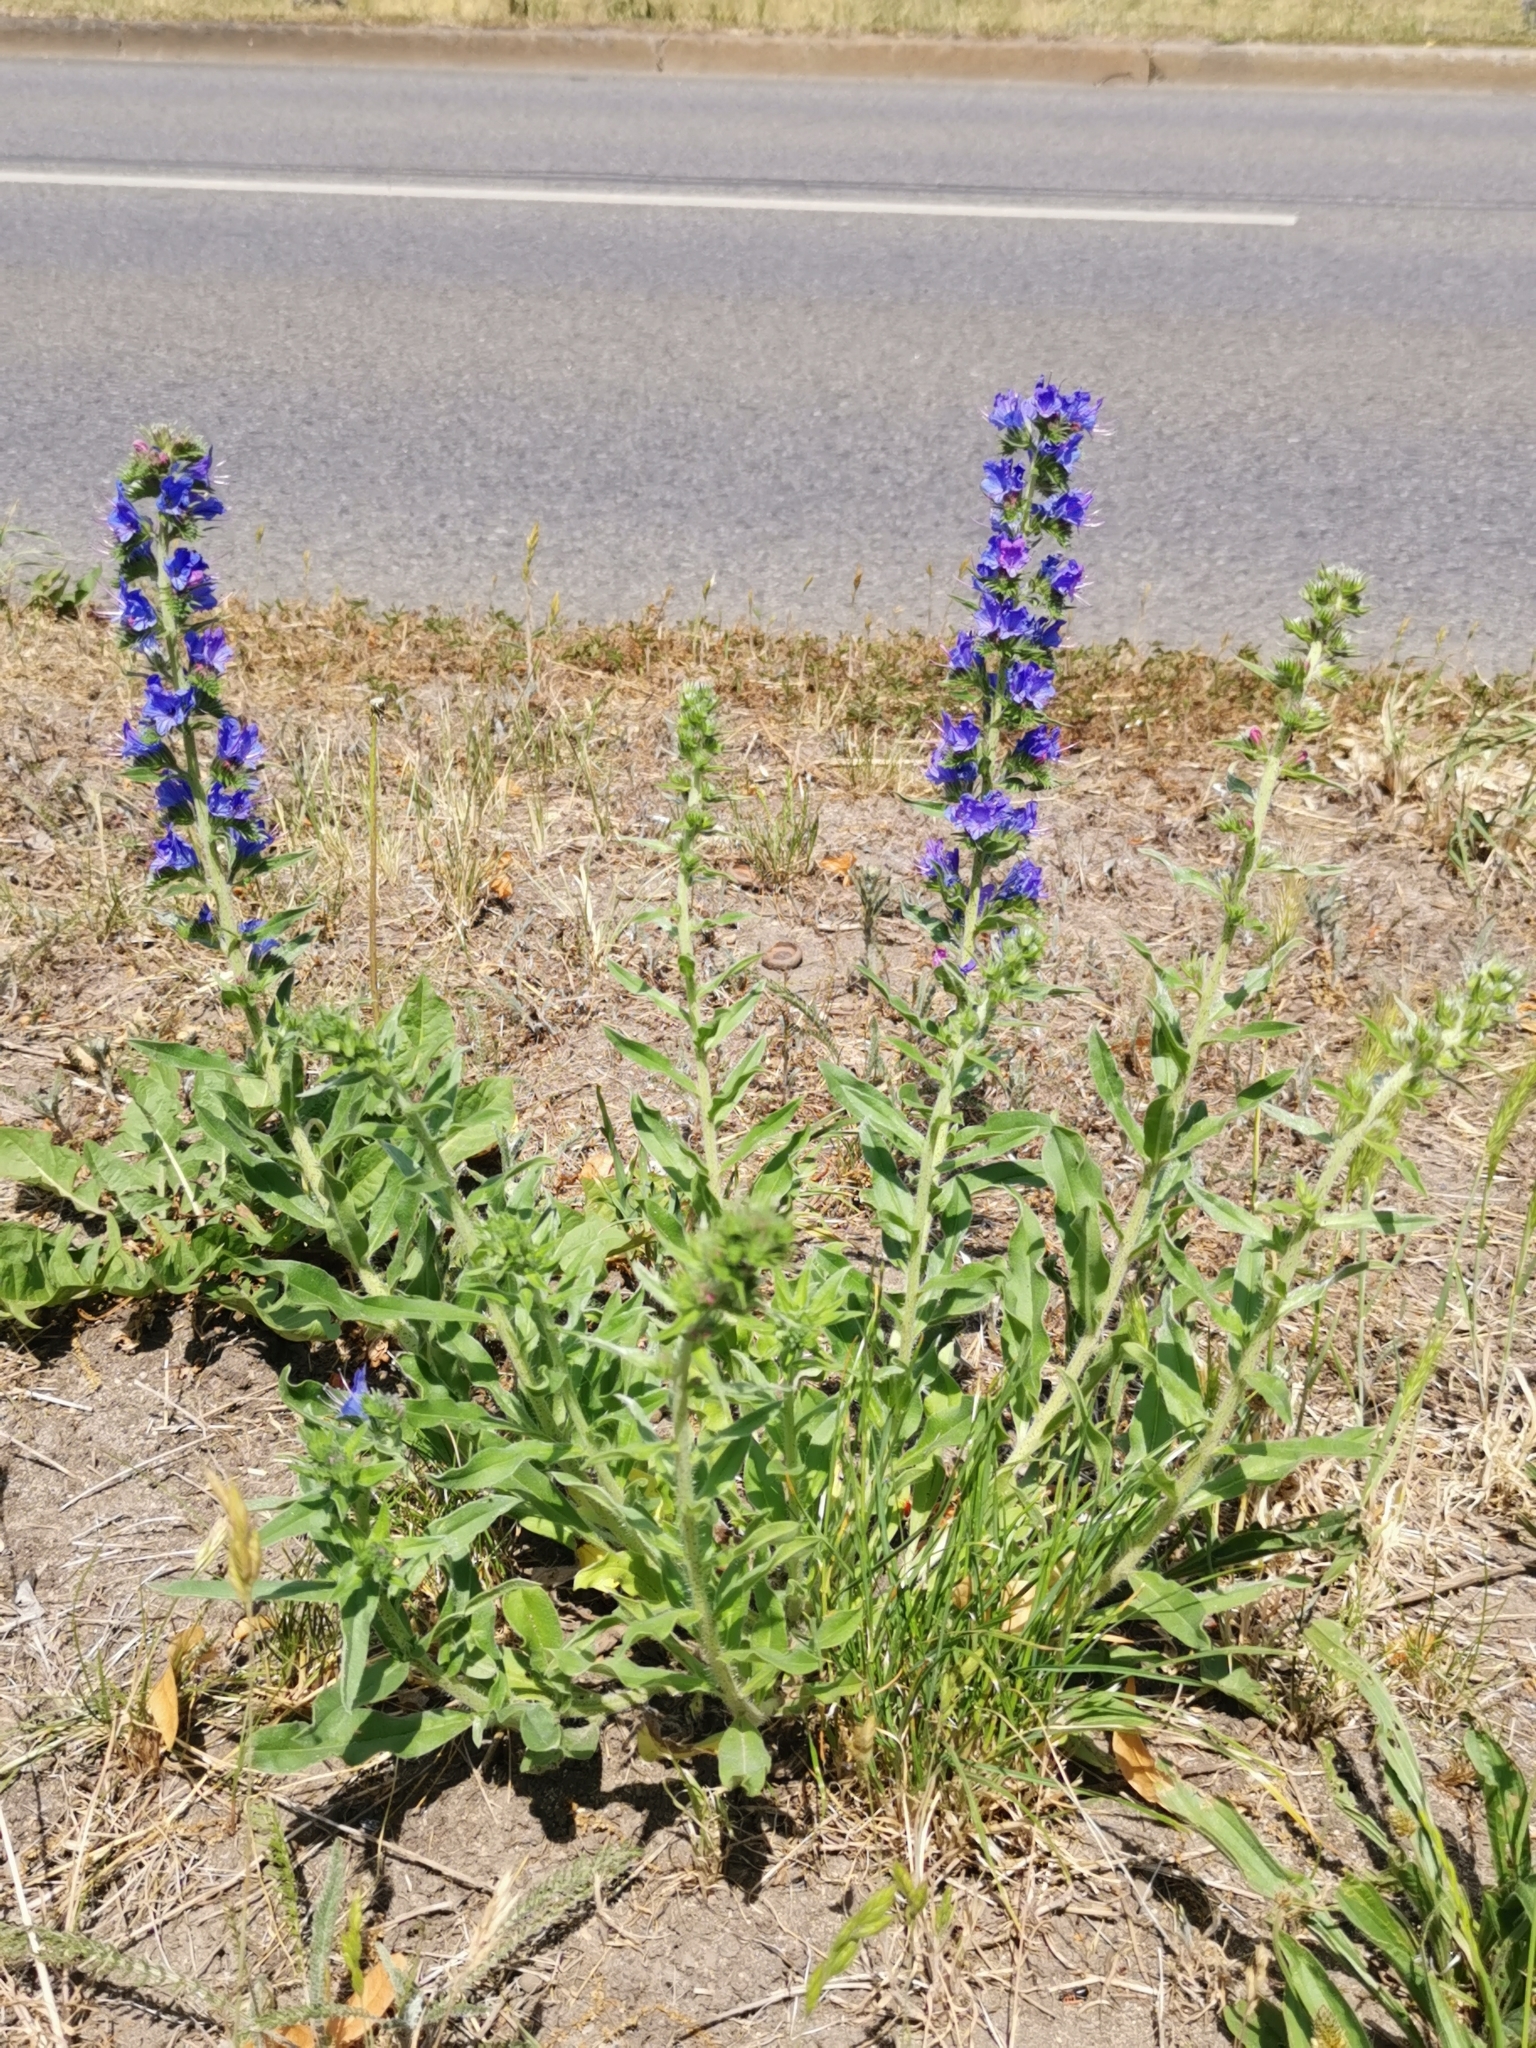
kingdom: Plantae
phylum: Tracheophyta
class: Magnoliopsida
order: Boraginales
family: Boraginaceae
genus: Echium
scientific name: Echium vulgare
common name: Common viper's bugloss
